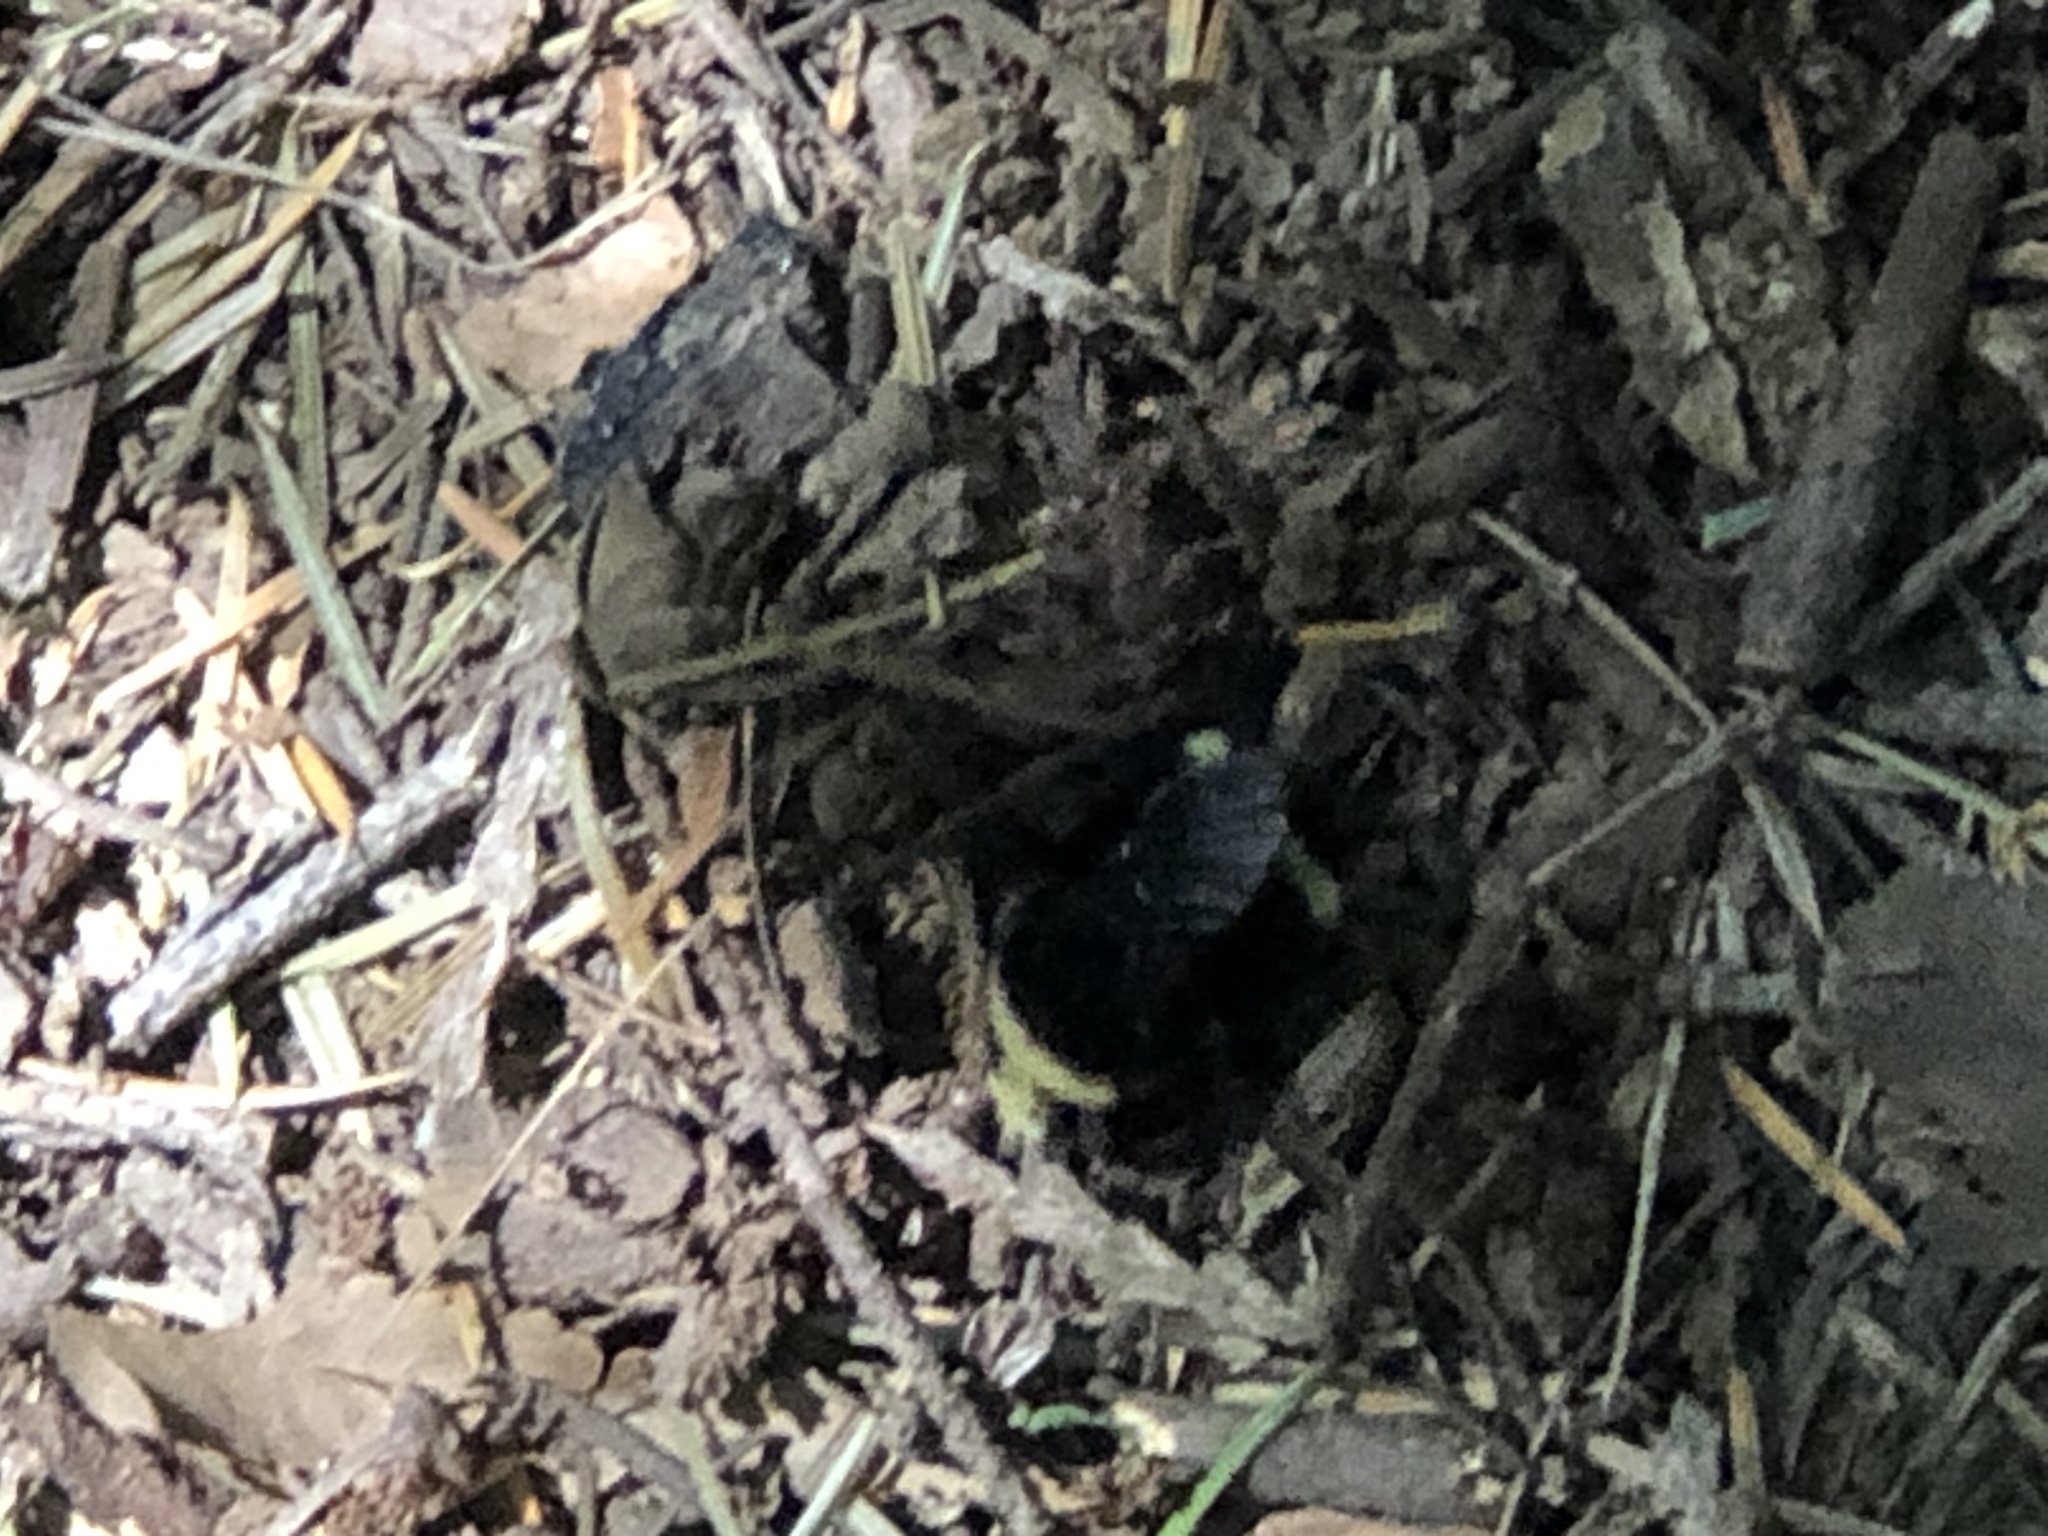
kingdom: Animalia
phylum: Arthropoda
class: Insecta
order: Hymenoptera
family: Apidae
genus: Bombus
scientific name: Bombus vosnesenskii
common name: Vosnesensky bumble bee
